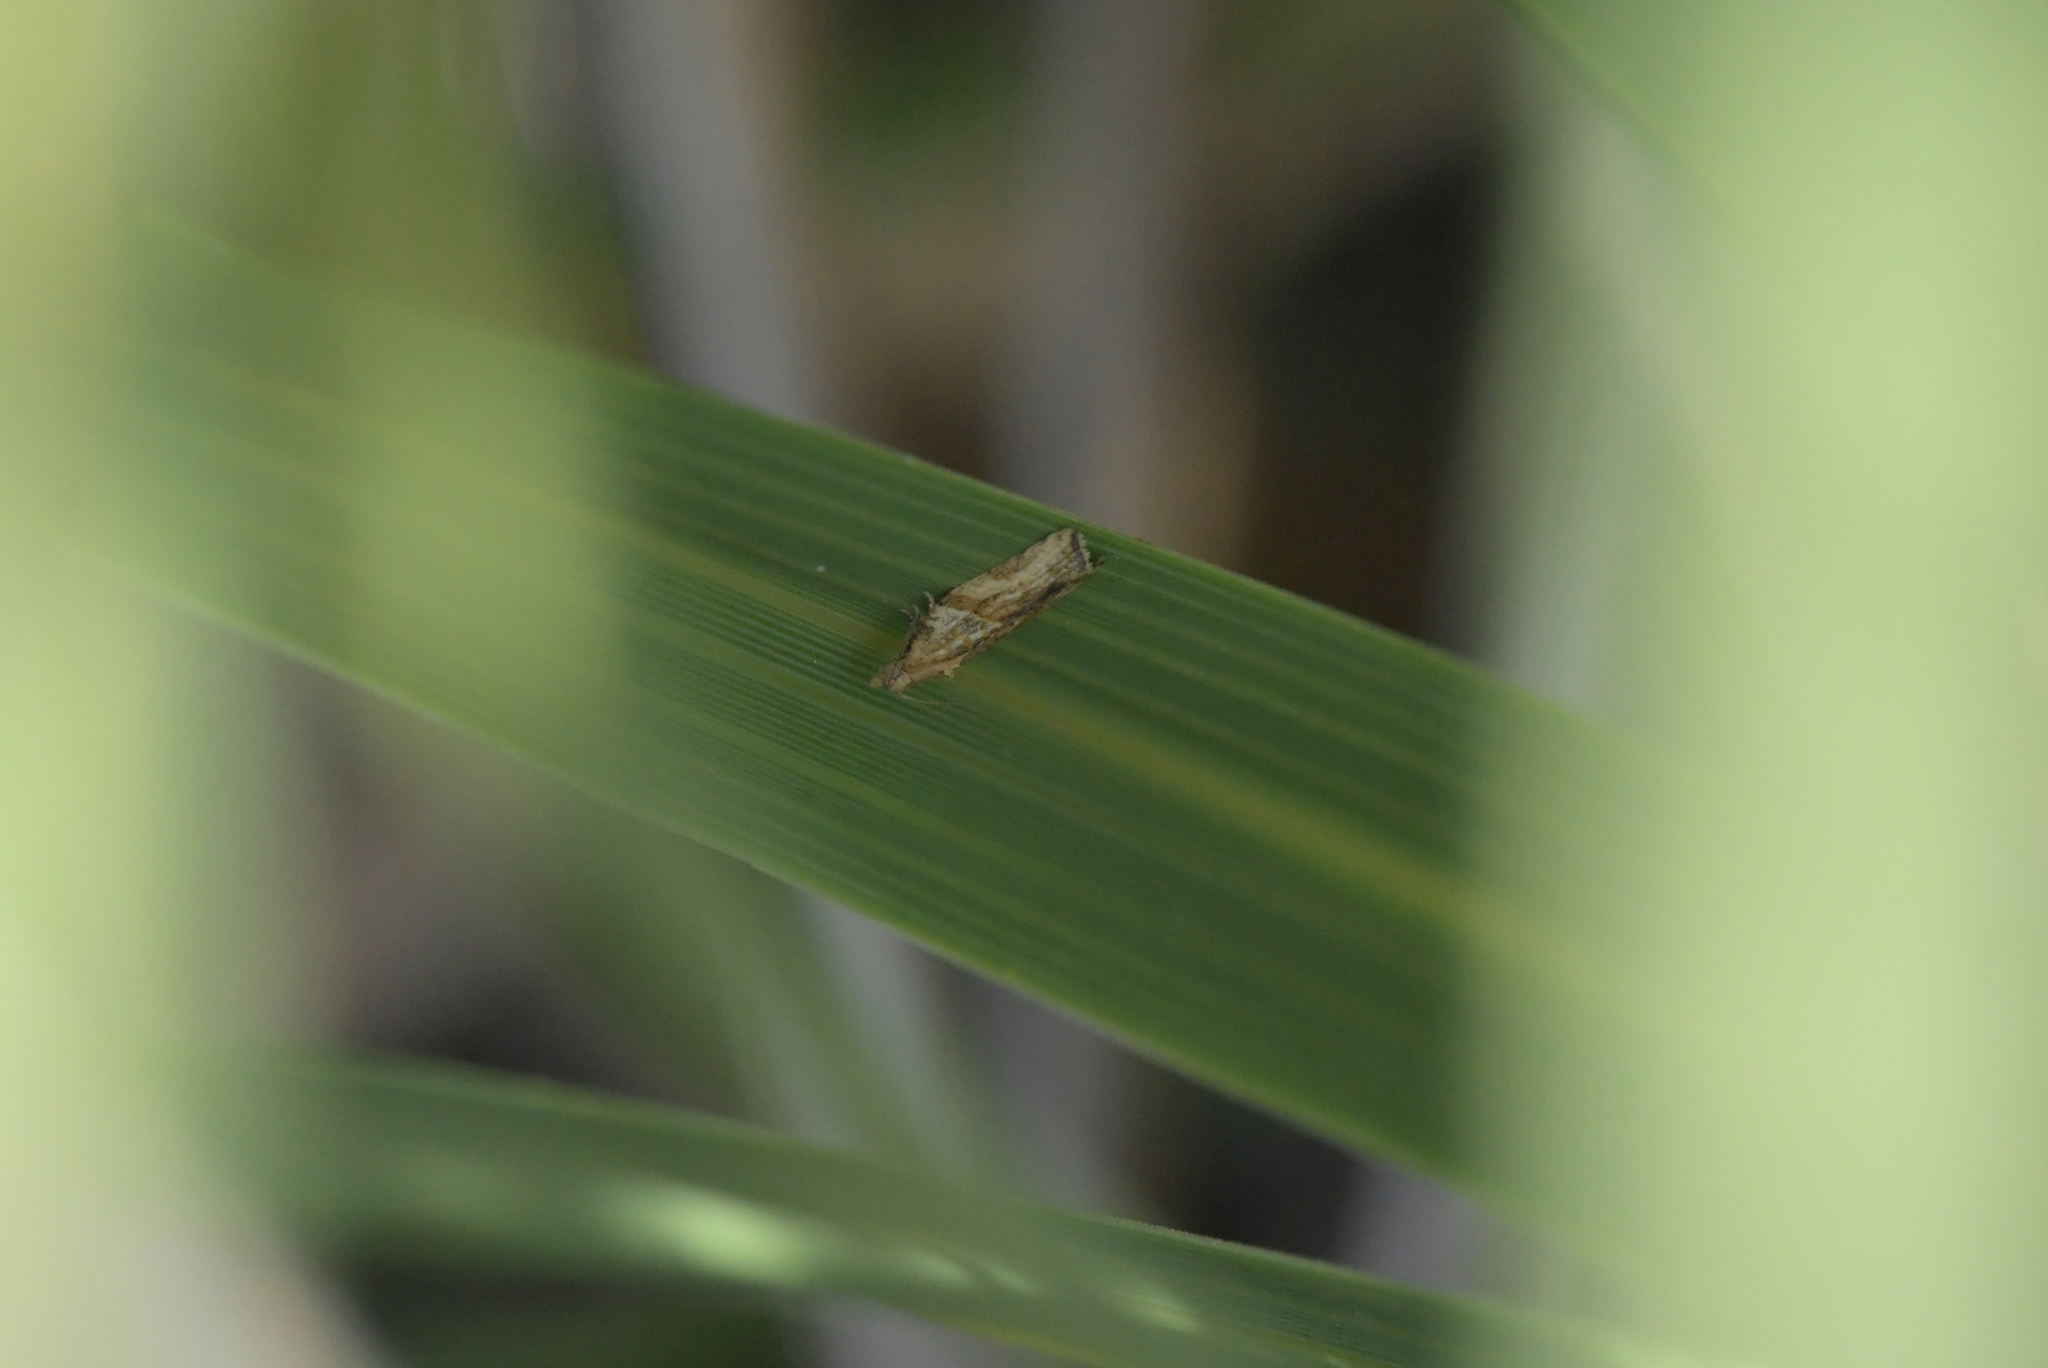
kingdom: Animalia
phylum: Arthropoda
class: Insecta
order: Lepidoptera
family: Tortricidae
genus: Epiphyas
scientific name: Epiphyas postvittana
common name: Light brown apple moth
